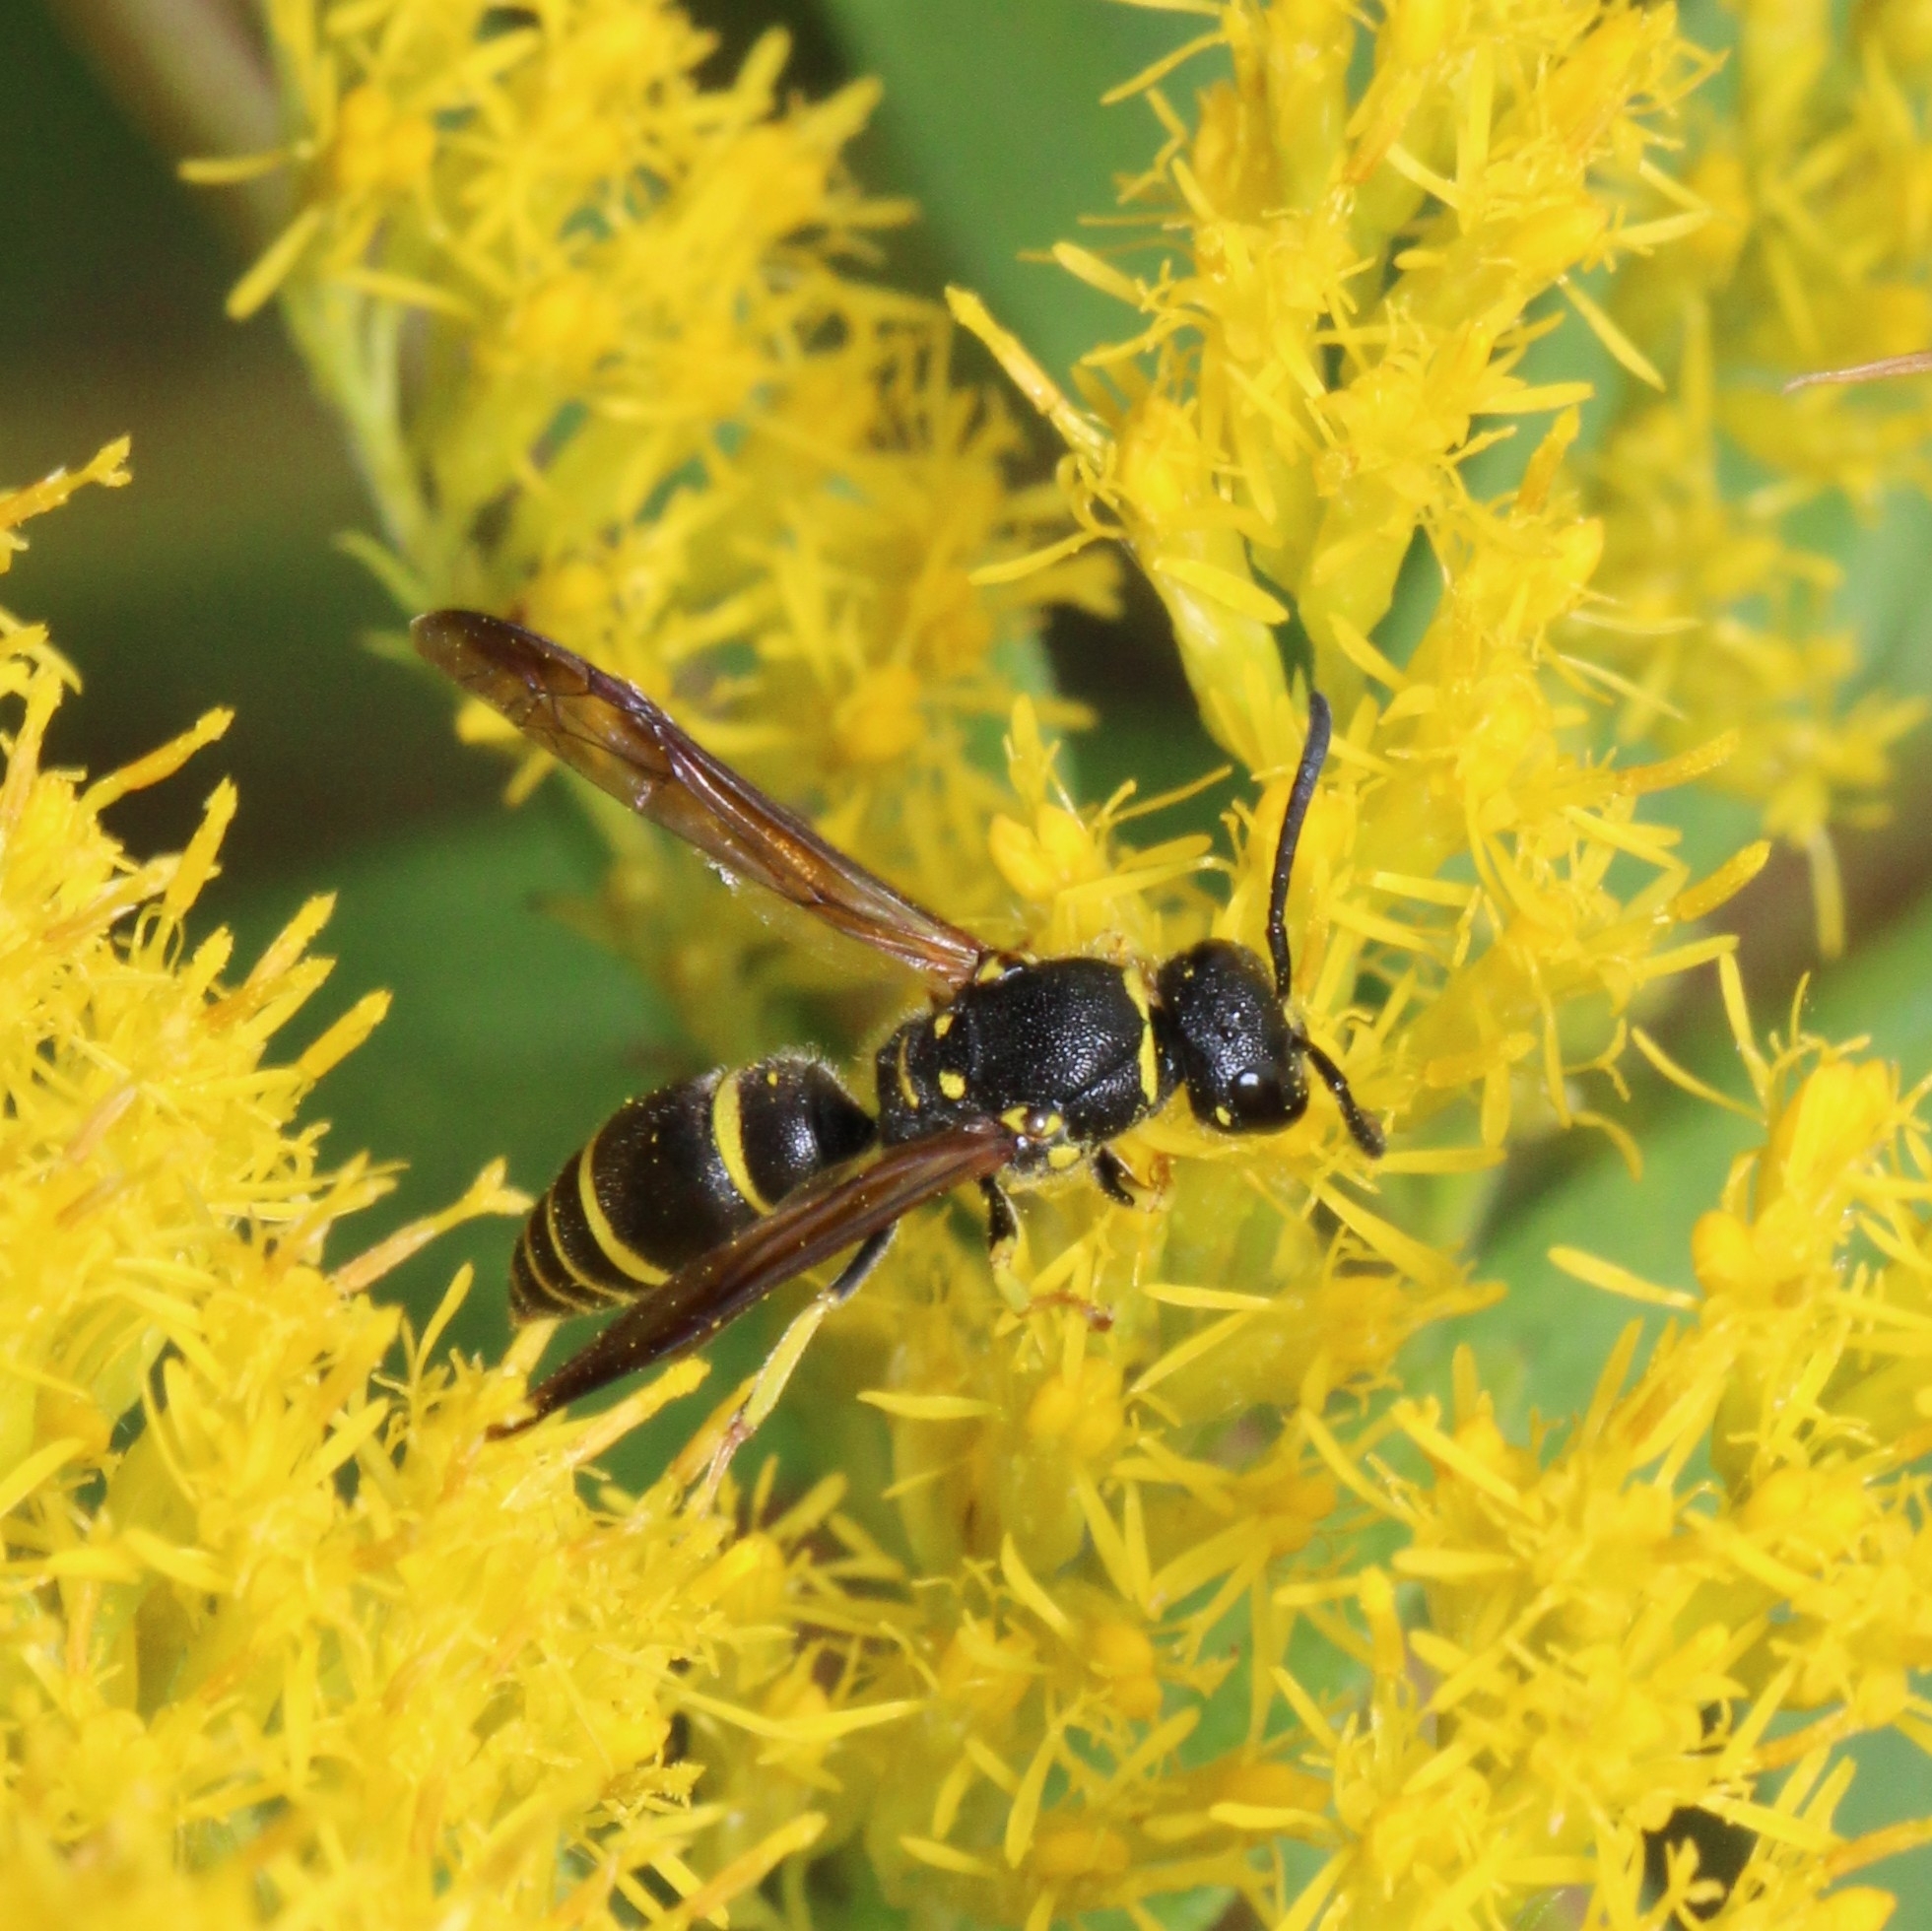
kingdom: Animalia
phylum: Arthropoda
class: Insecta
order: Hymenoptera
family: Vespidae
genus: Ancistrocerus
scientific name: Ancistrocerus adiabatus
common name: Bramble mason wasp
